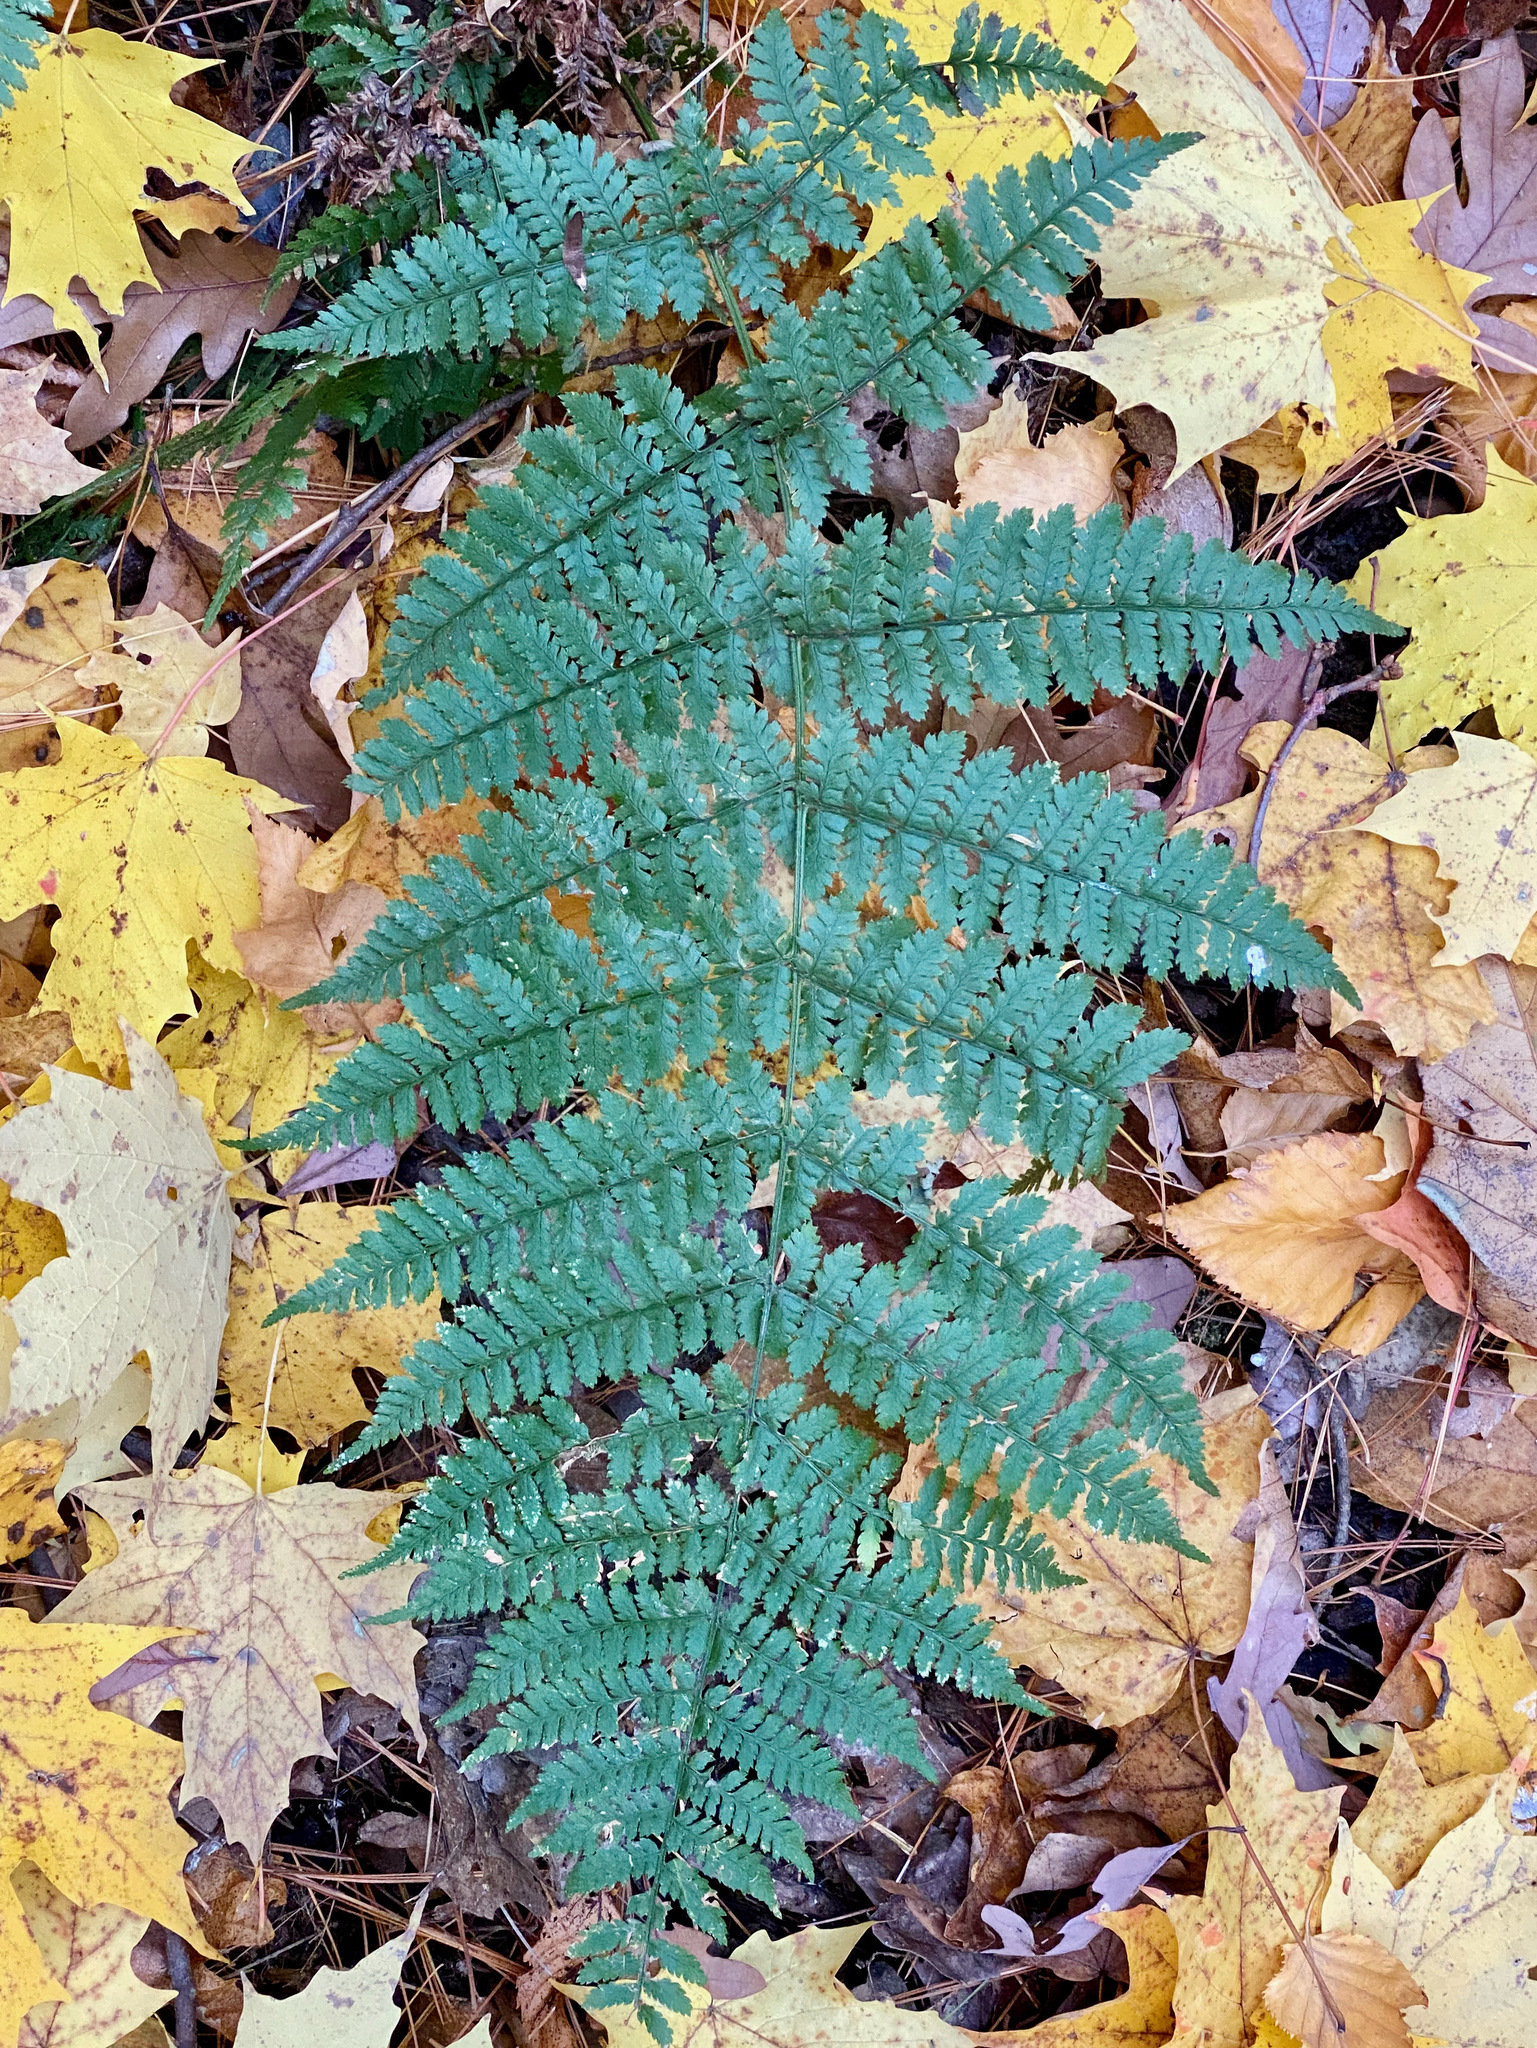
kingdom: Plantae
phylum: Tracheophyta
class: Polypodiopsida
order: Polypodiales
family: Dryopteridaceae
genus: Dryopteris
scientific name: Dryopteris intermedia
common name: Evergreen wood fern
